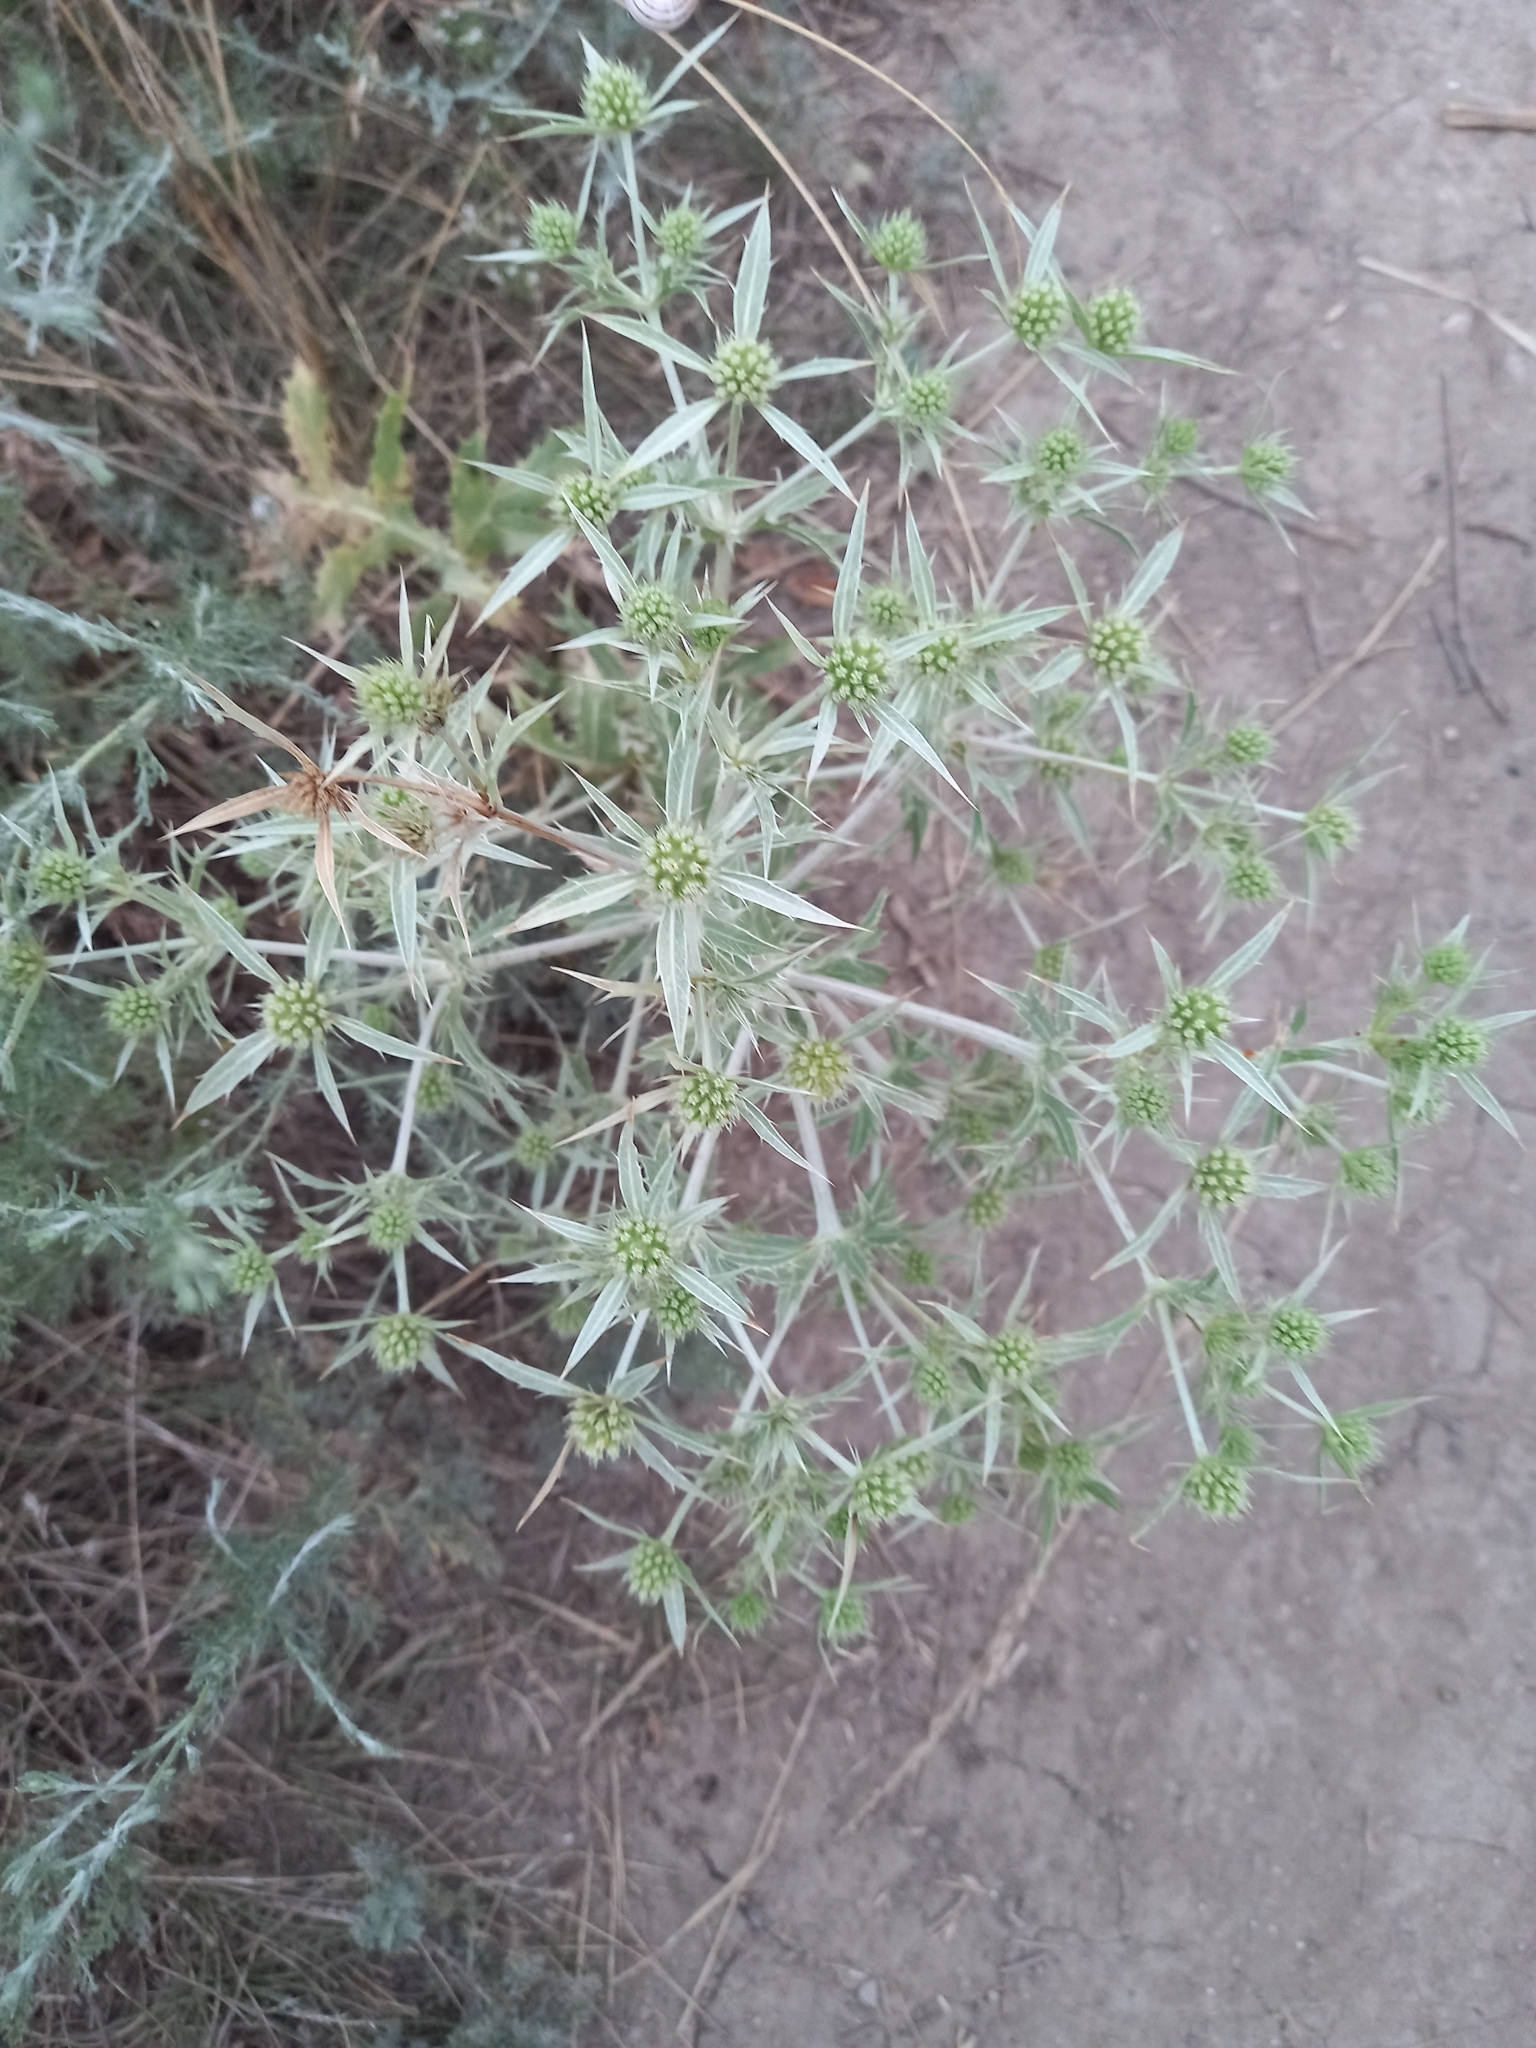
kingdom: Plantae
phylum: Tracheophyta
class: Magnoliopsida
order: Apiales
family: Apiaceae
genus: Eryngium
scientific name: Eryngium campestre
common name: Field eryngo
